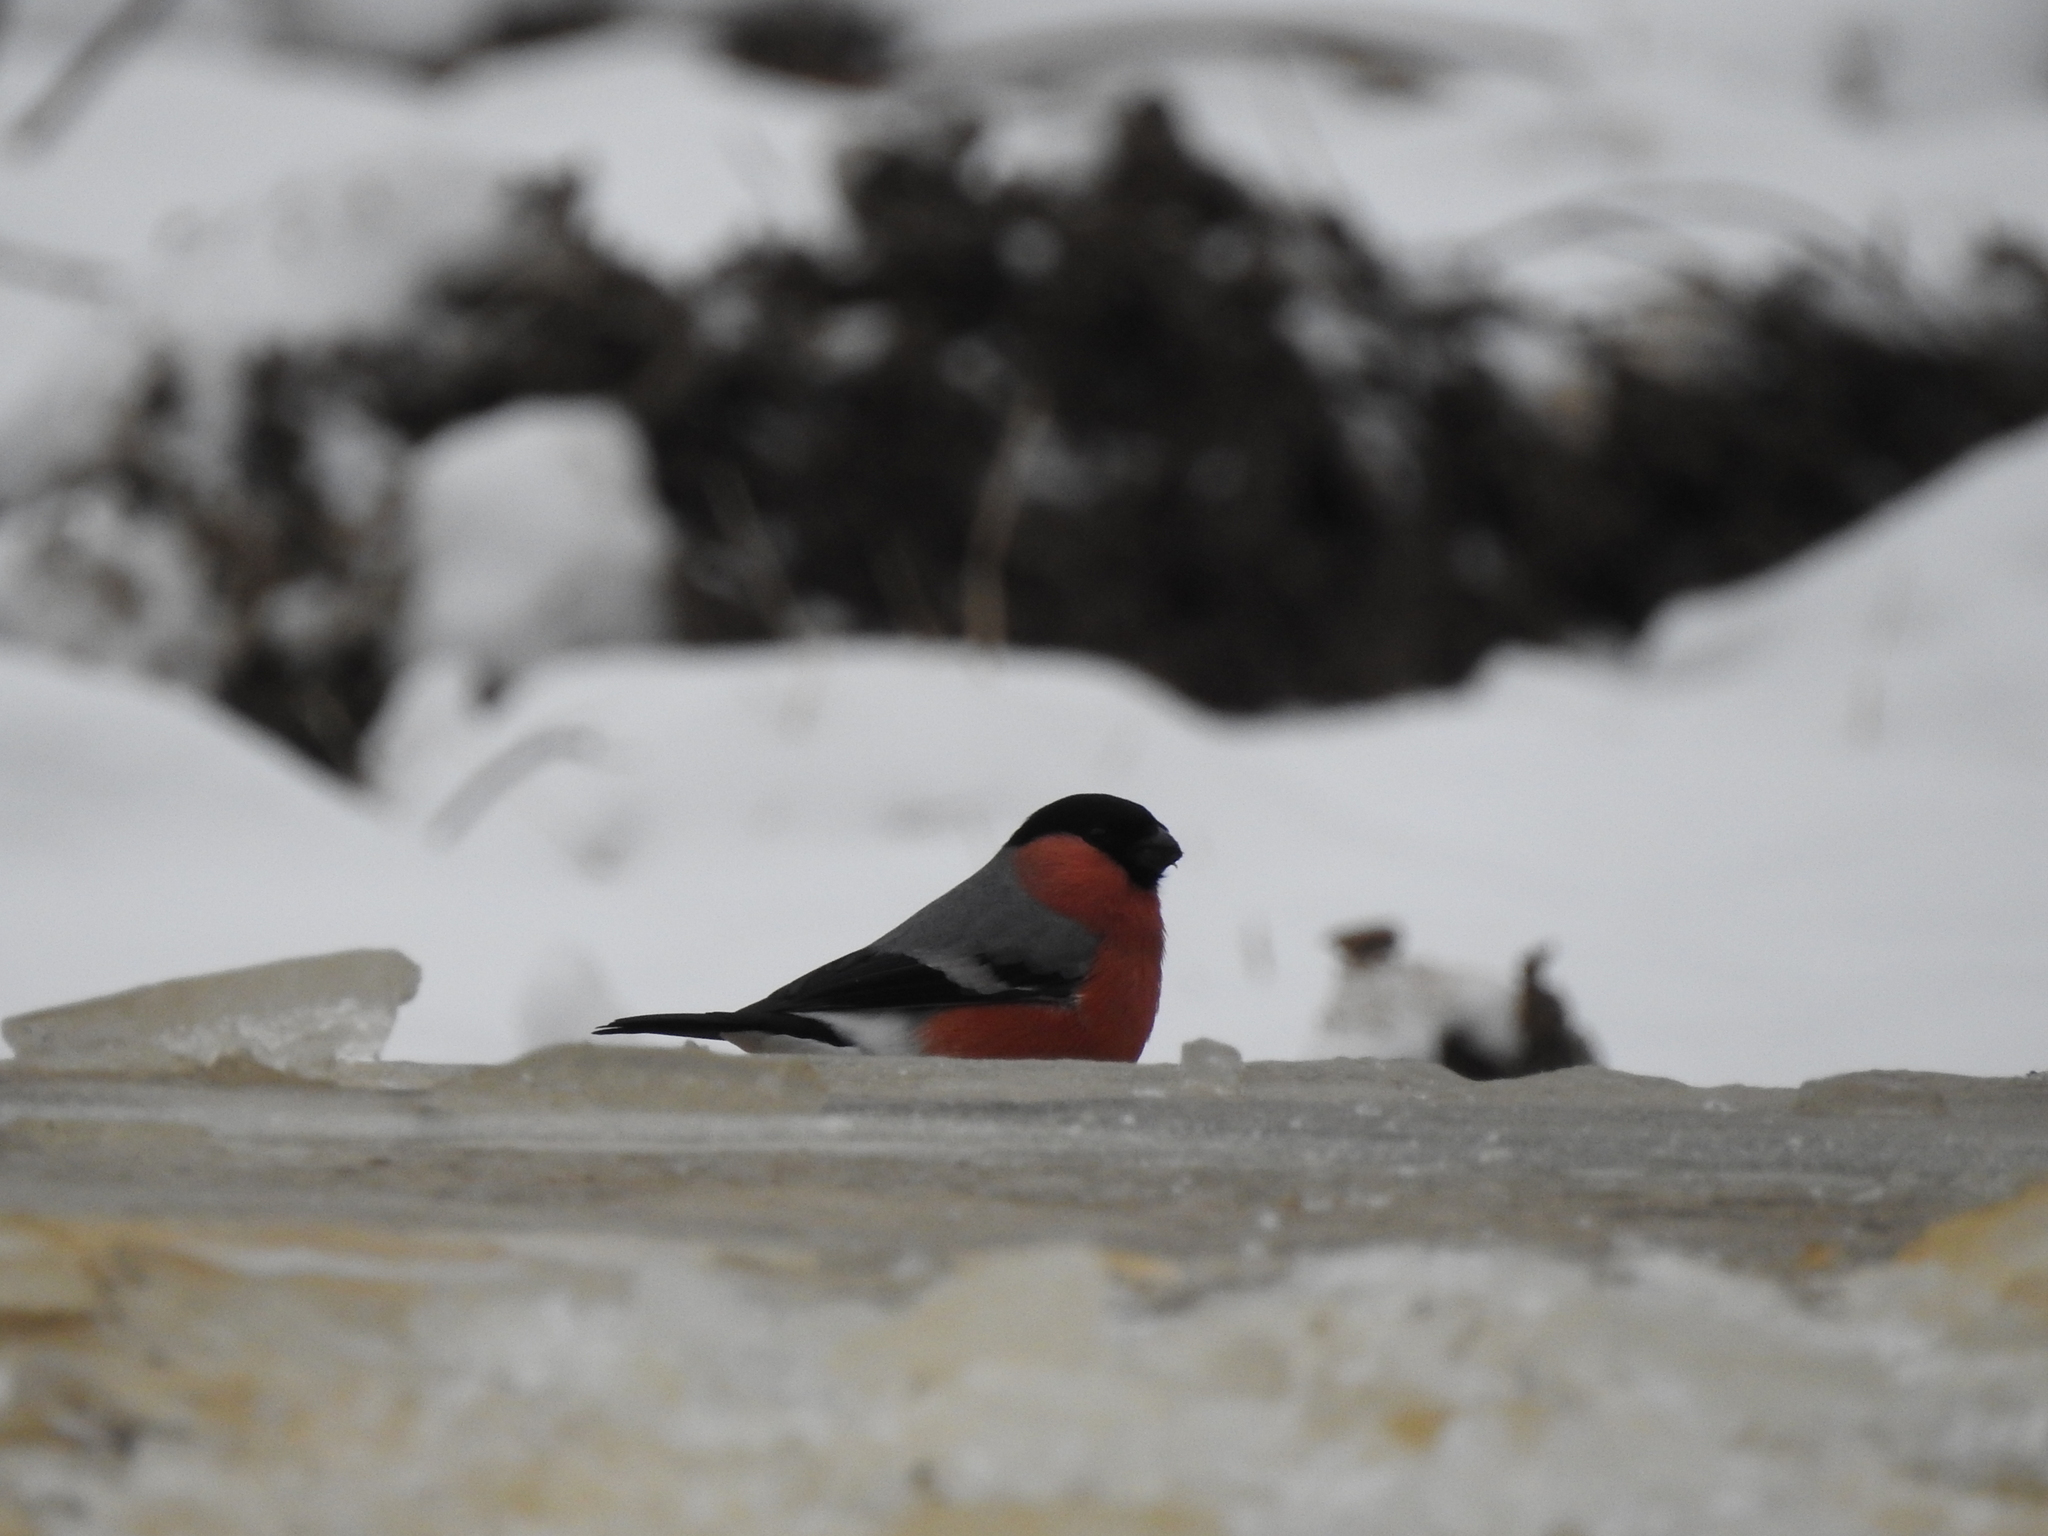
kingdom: Animalia
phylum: Chordata
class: Aves
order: Passeriformes
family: Fringillidae
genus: Pyrrhula
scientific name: Pyrrhula pyrrhula
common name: Eurasian bullfinch
